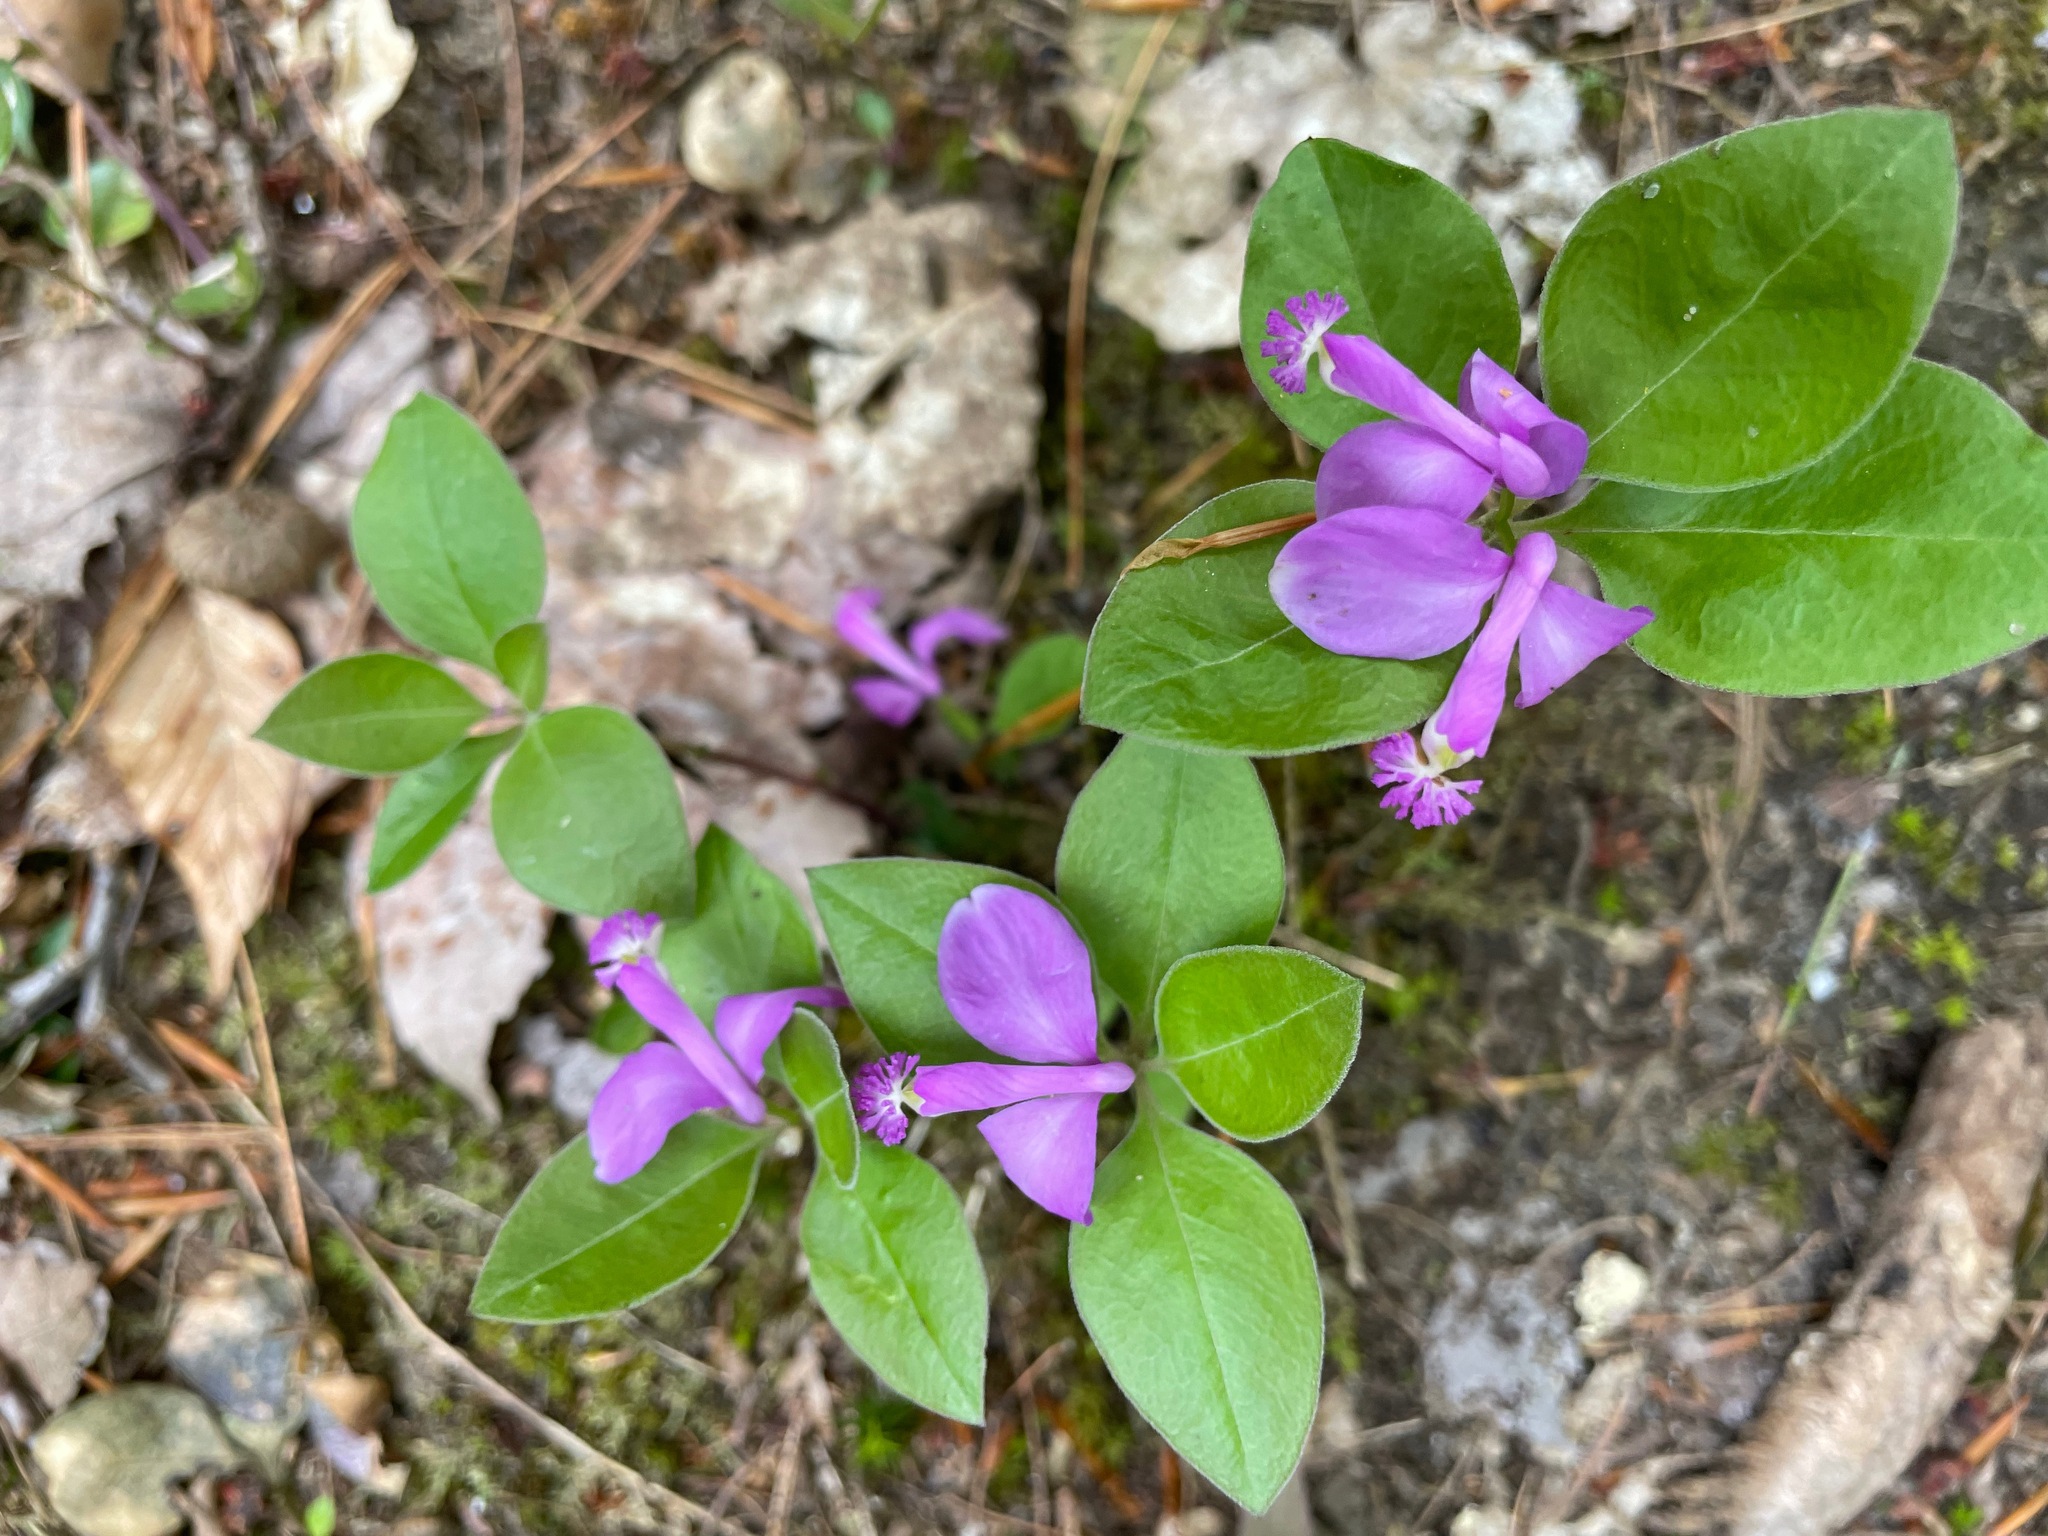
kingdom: Plantae
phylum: Tracheophyta
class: Magnoliopsida
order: Fabales
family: Polygalaceae
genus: Polygaloides
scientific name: Polygaloides paucifolia
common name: Bird-on-the-wing
